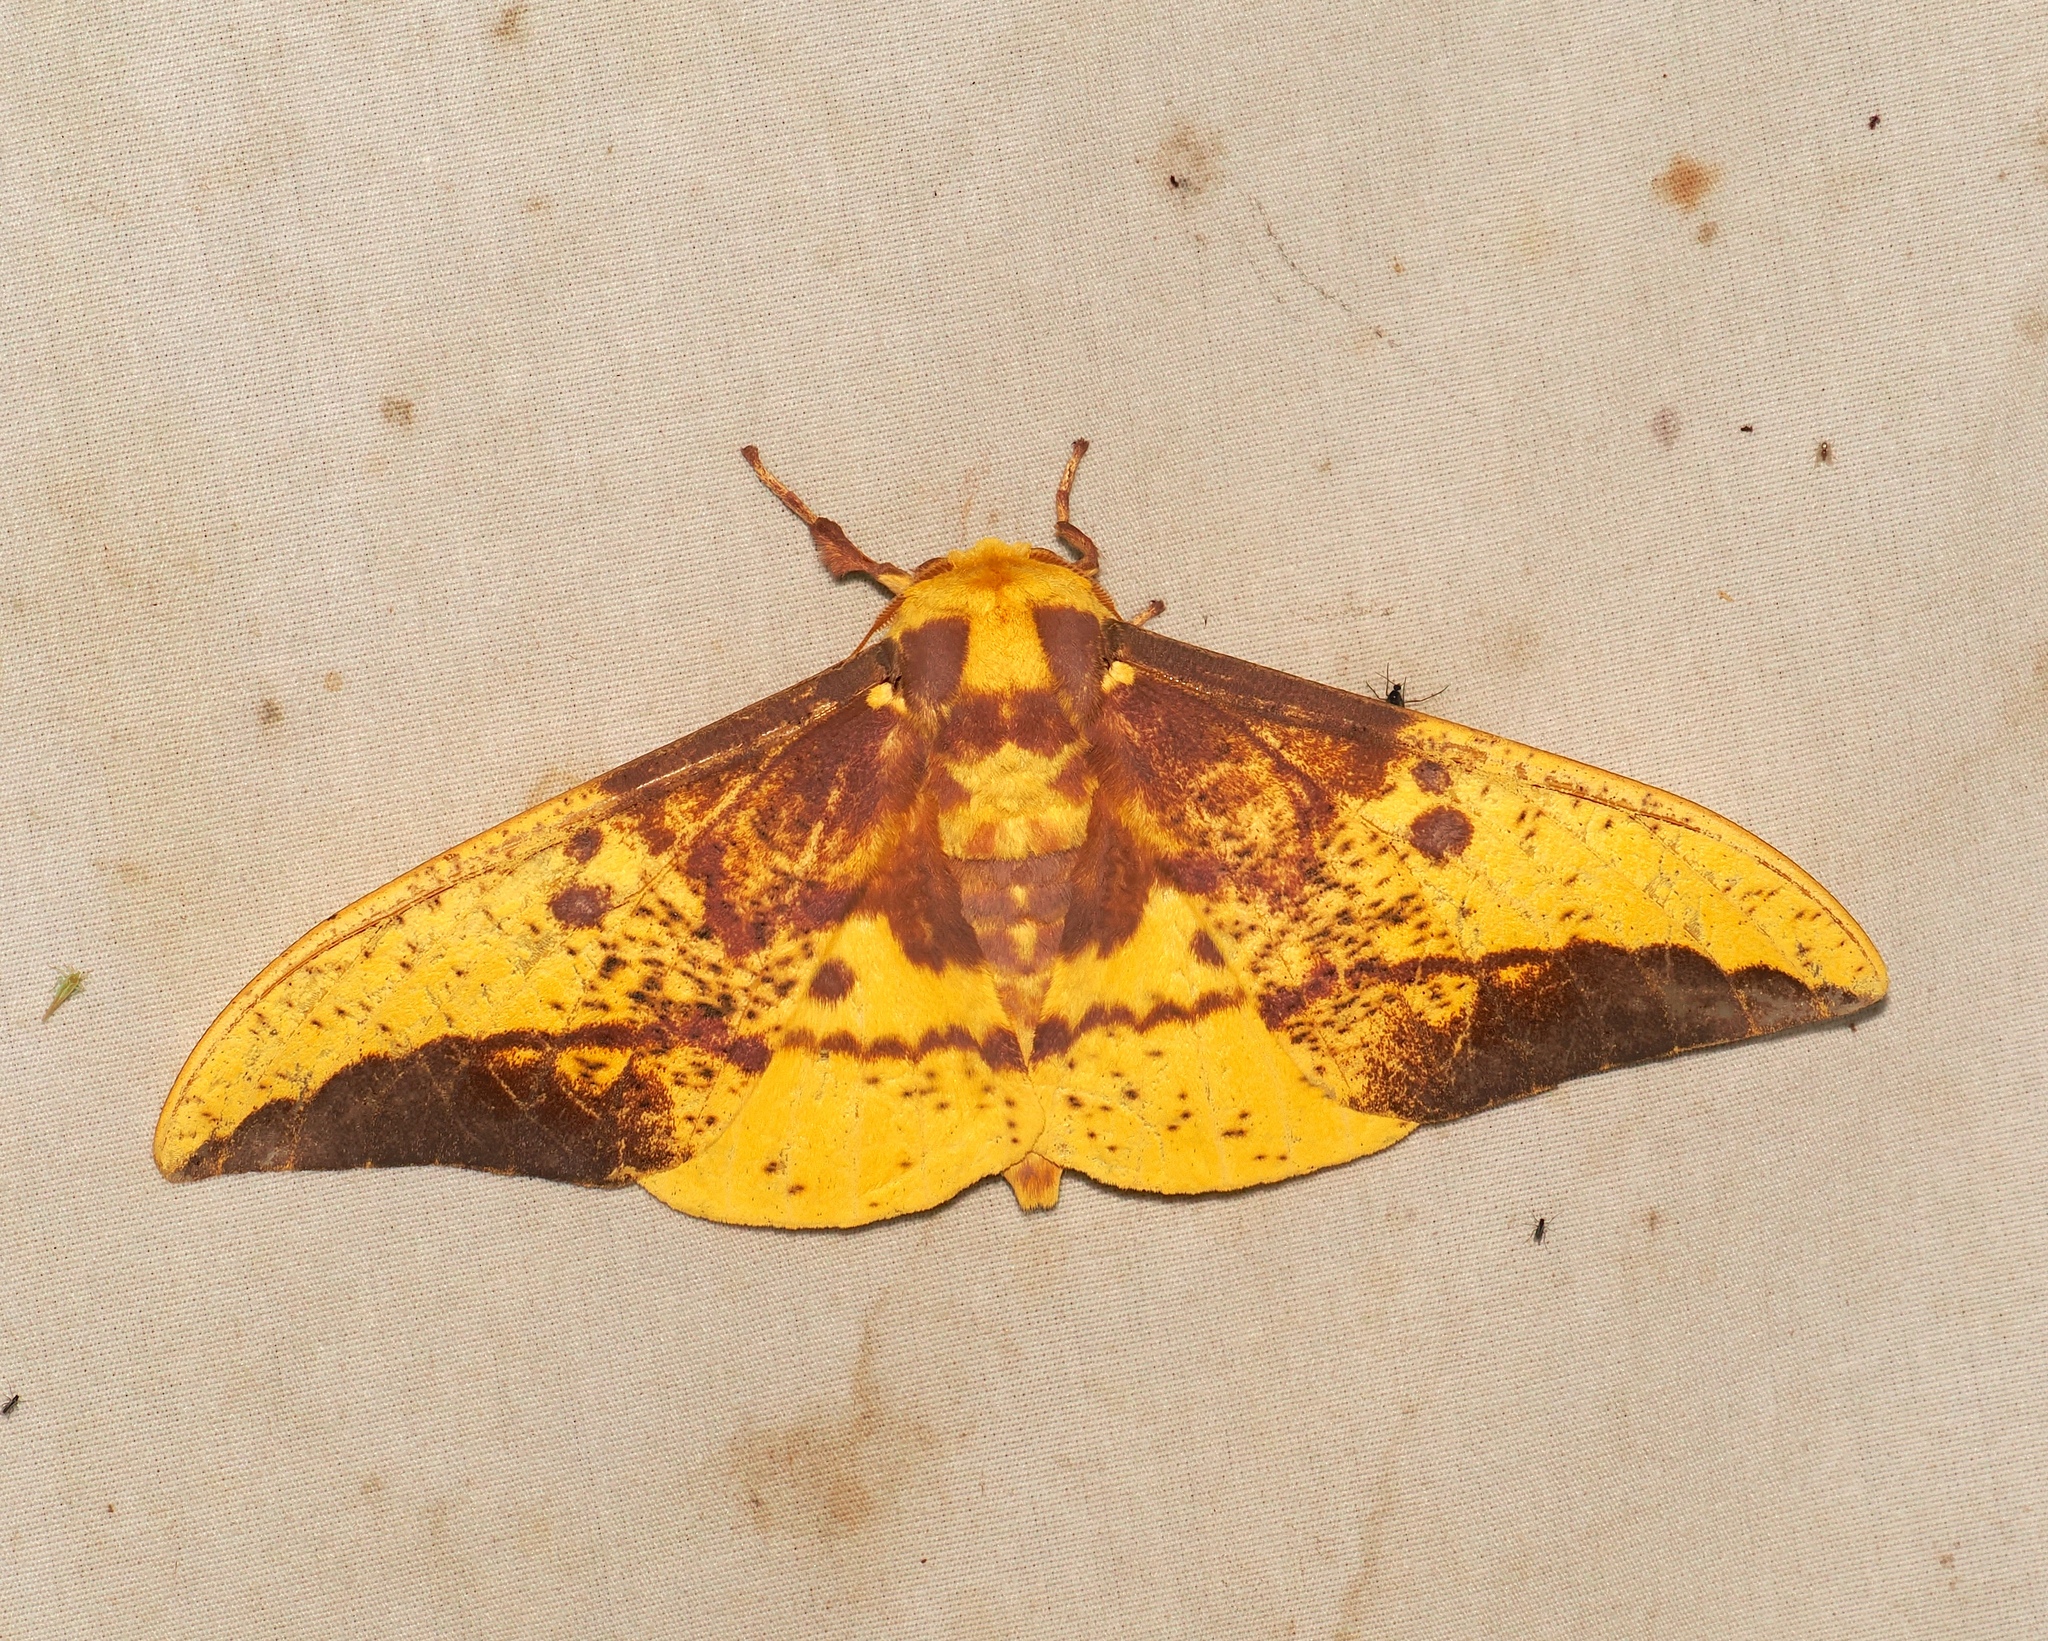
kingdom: Animalia
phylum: Arthropoda
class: Insecta
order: Lepidoptera
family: Saturniidae
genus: Eacles
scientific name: Eacles imperialis
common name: Imperial moth
